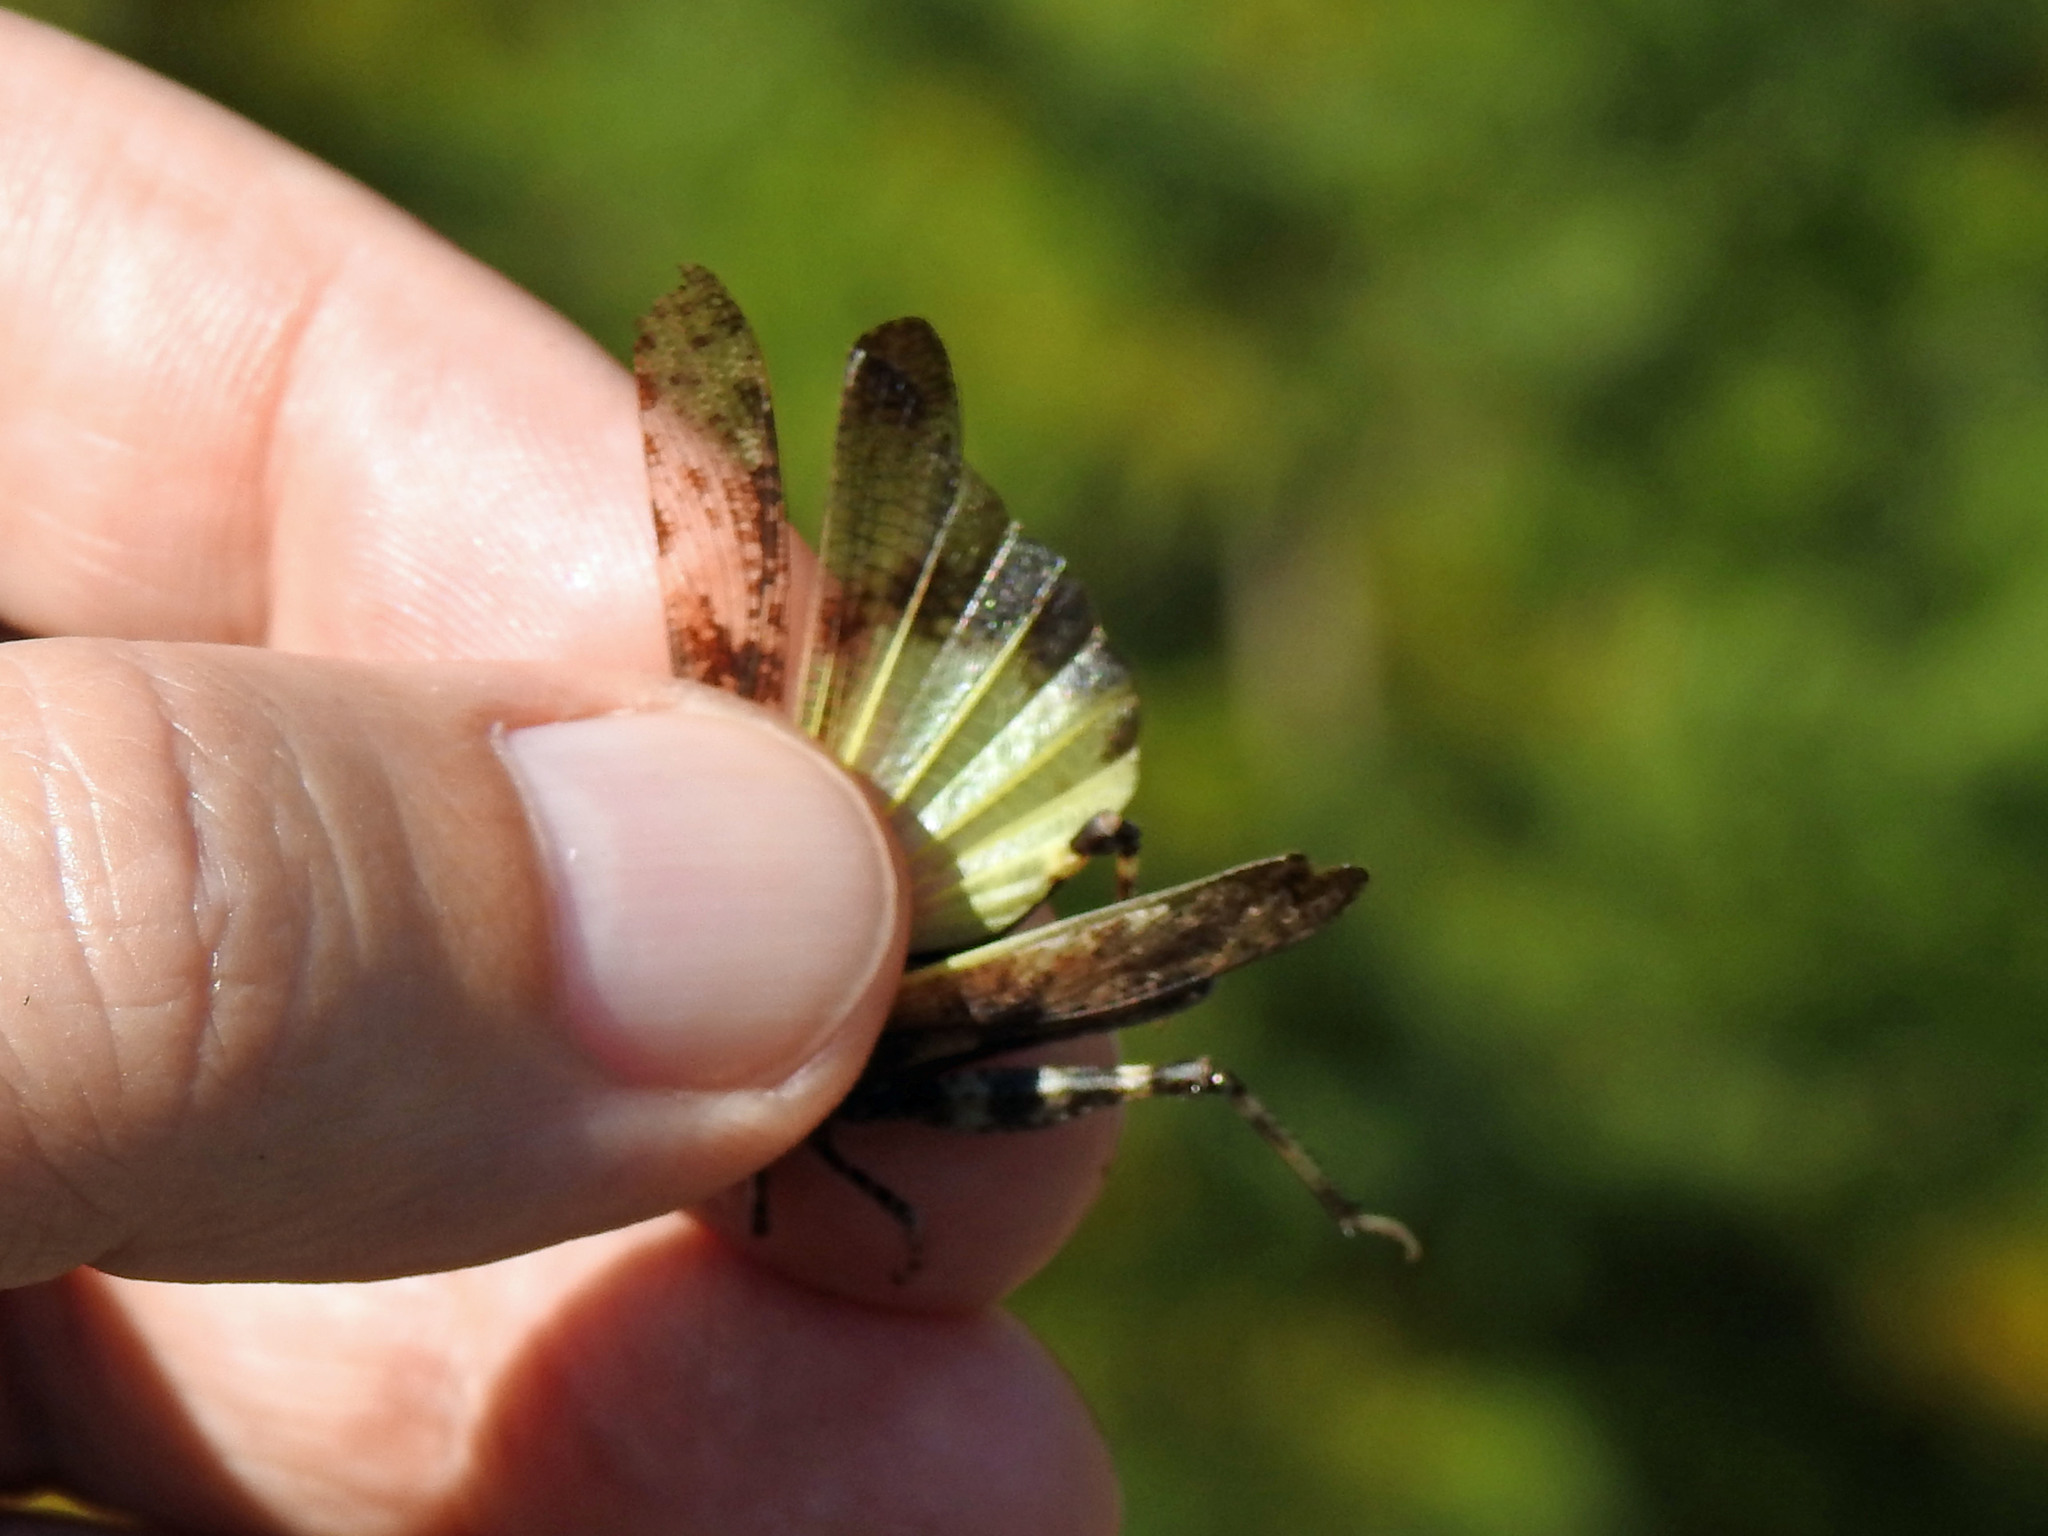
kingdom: Animalia
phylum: Arthropoda
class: Insecta
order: Orthoptera
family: Acrididae
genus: Trimerotropis
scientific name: Trimerotropis verruculata
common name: Crackling forest grasshopper
